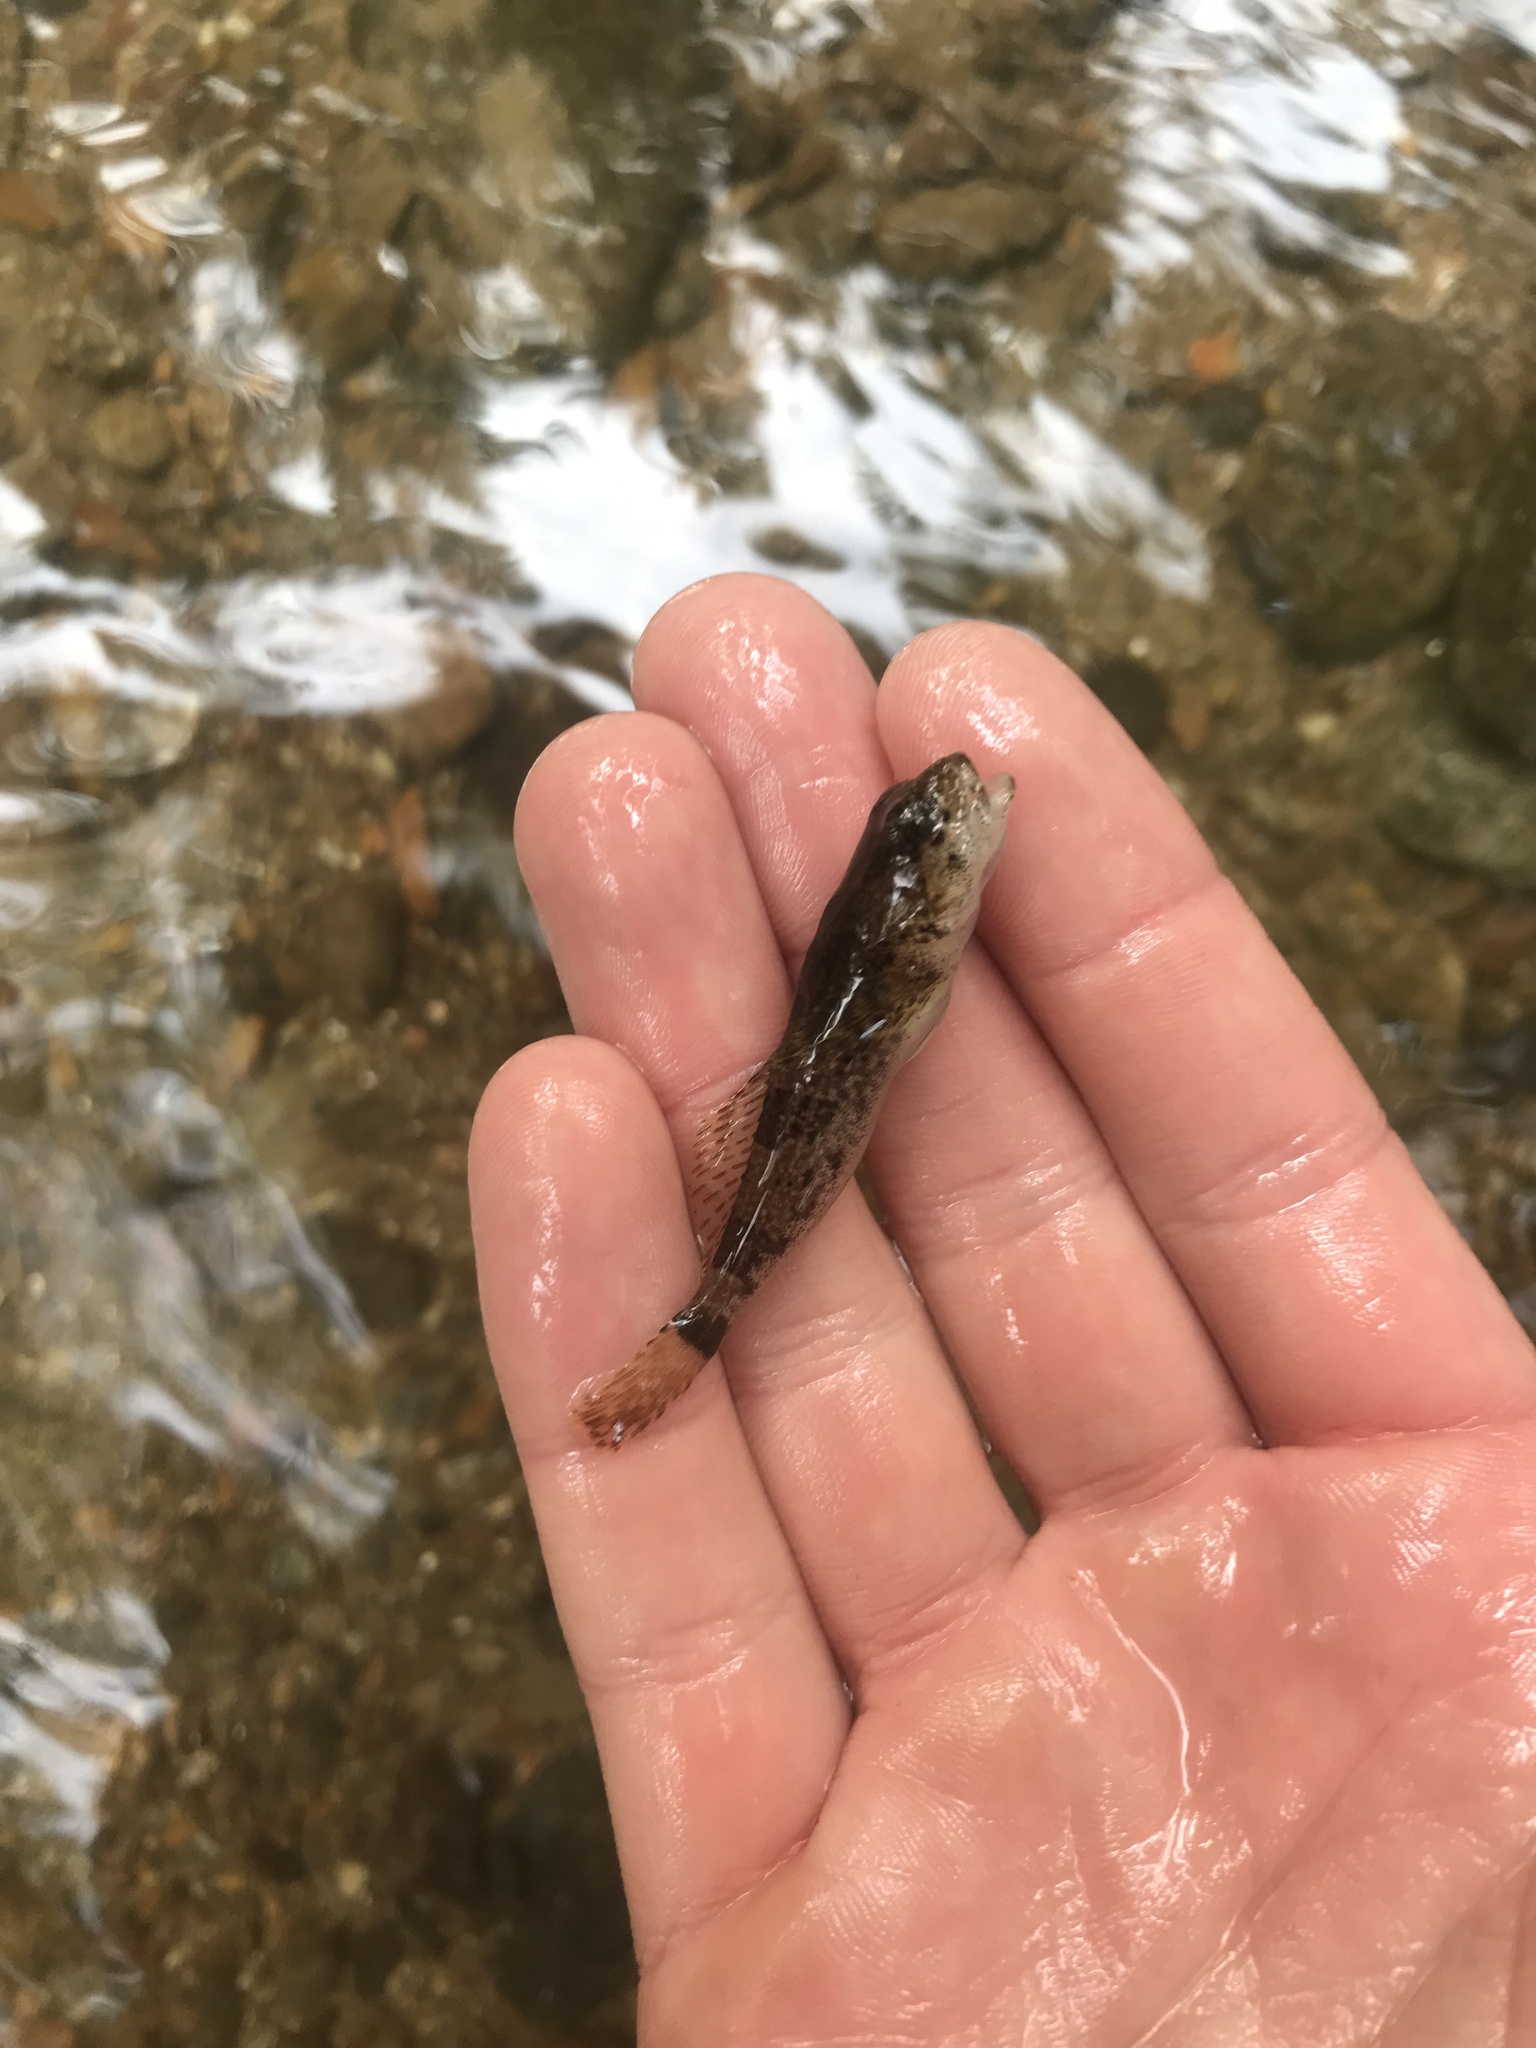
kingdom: Animalia
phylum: Chordata
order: Scorpaeniformes
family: Cottidae
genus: Cottus
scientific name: Cottus bairdii
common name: Mottled sculpin
